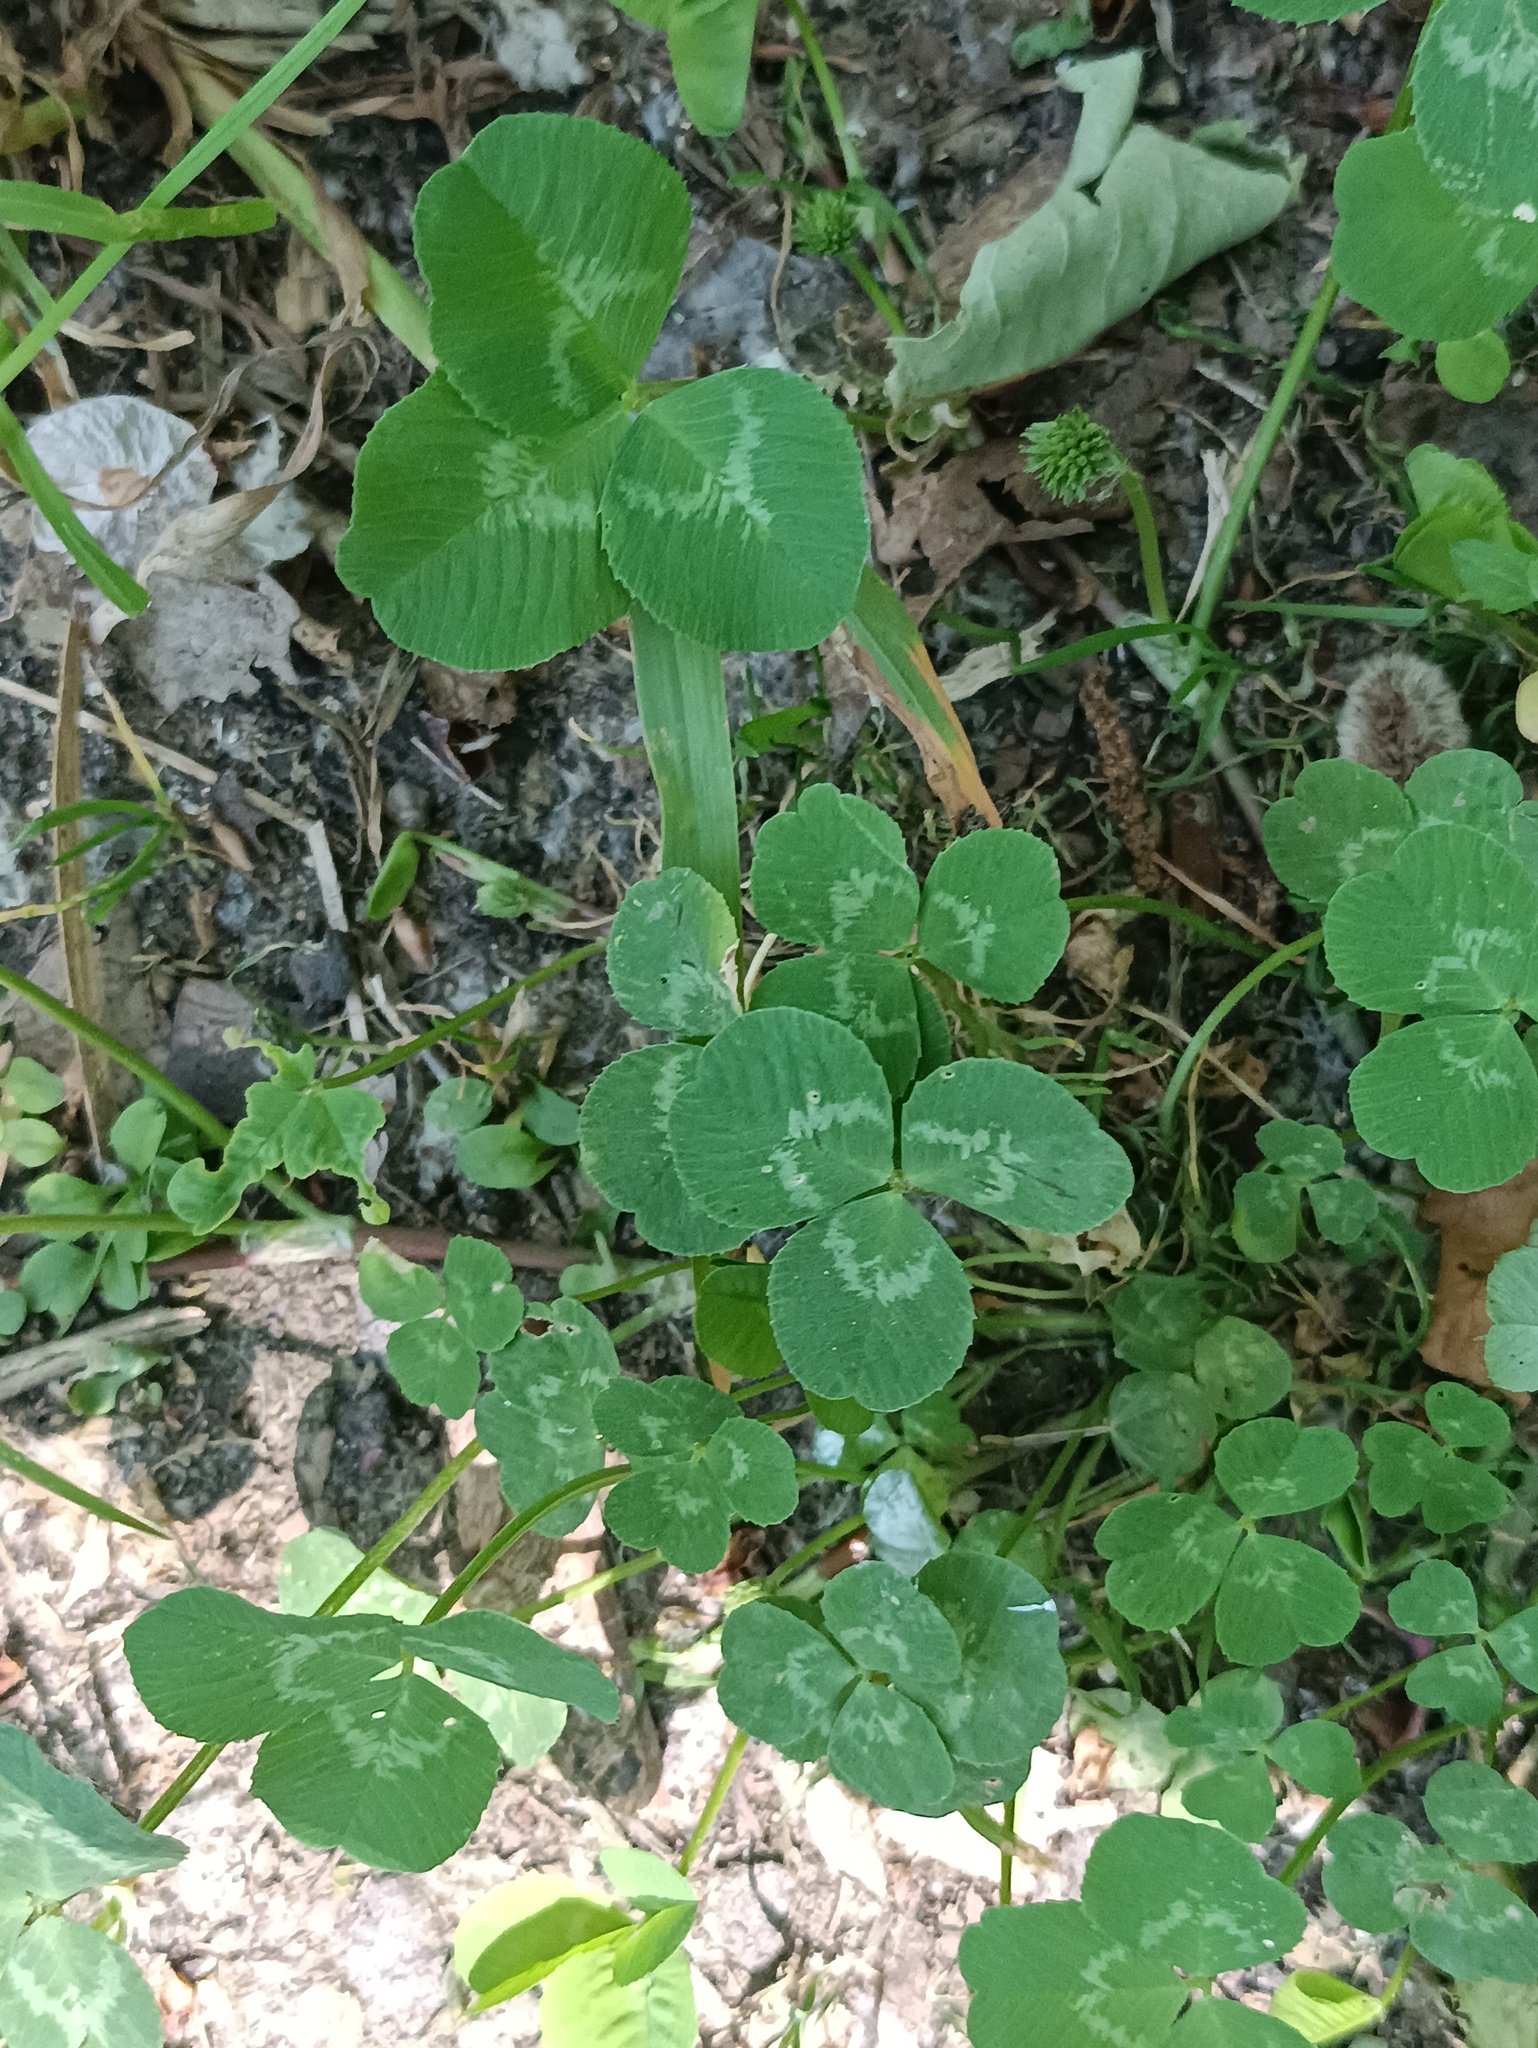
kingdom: Plantae
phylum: Tracheophyta
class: Magnoliopsida
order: Fabales
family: Fabaceae
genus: Trifolium
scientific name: Trifolium repens
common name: White clover
